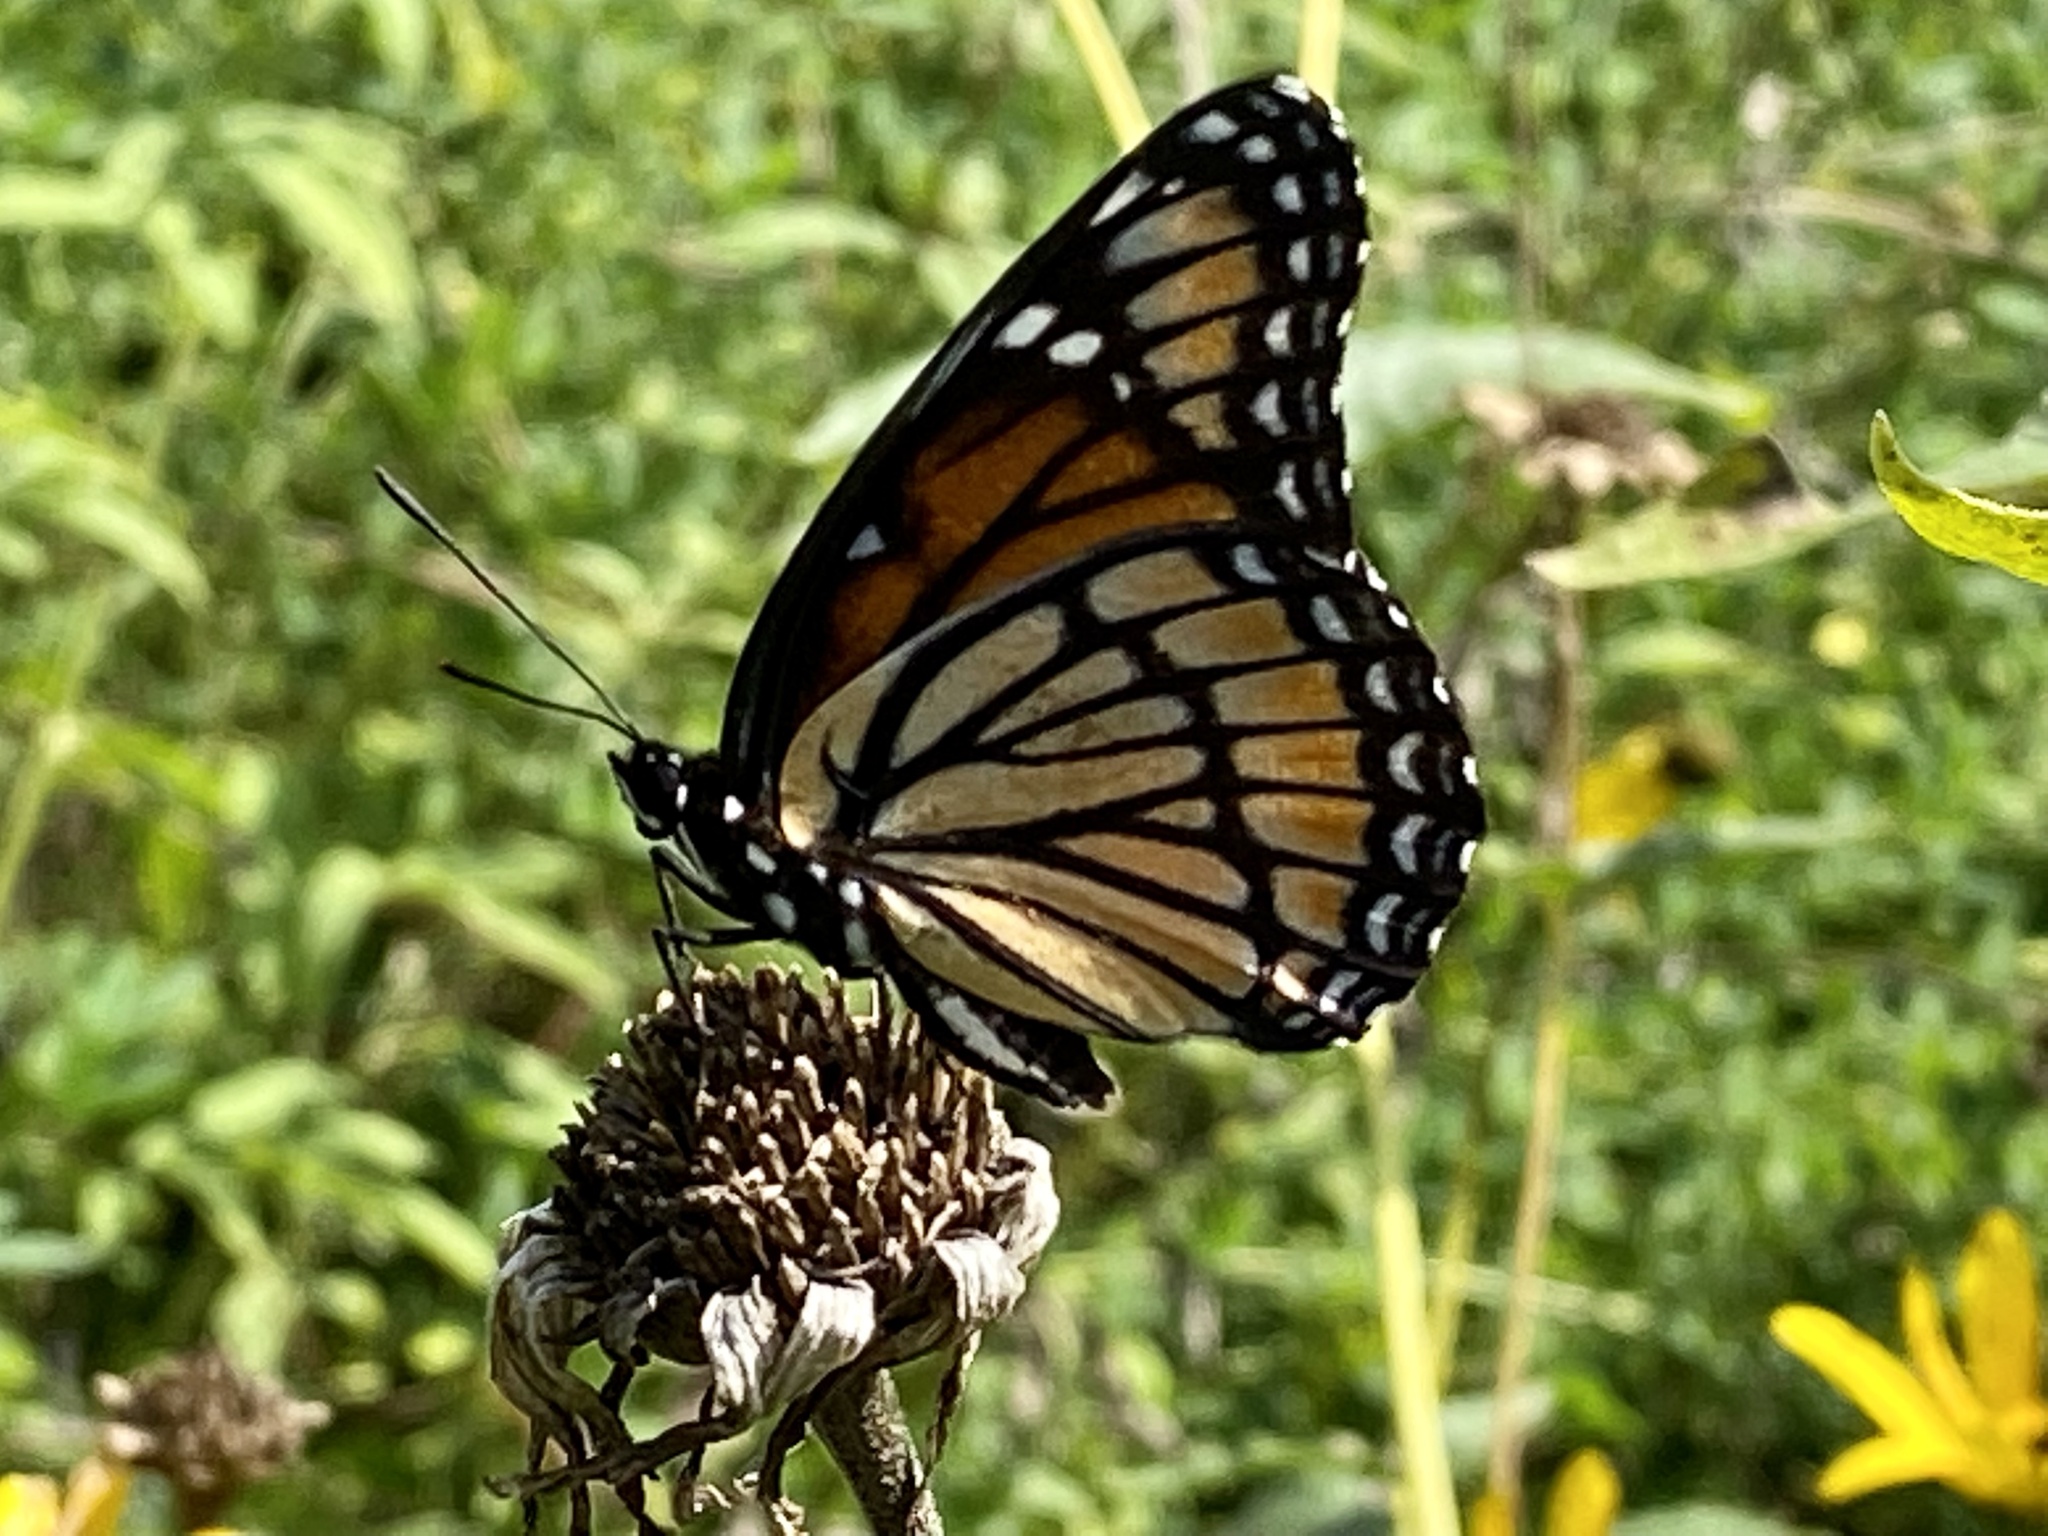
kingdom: Animalia
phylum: Arthropoda
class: Insecta
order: Lepidoptera
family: Nymphalidae
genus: Limenitis
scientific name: Limenitis archippus
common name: Viceroy
